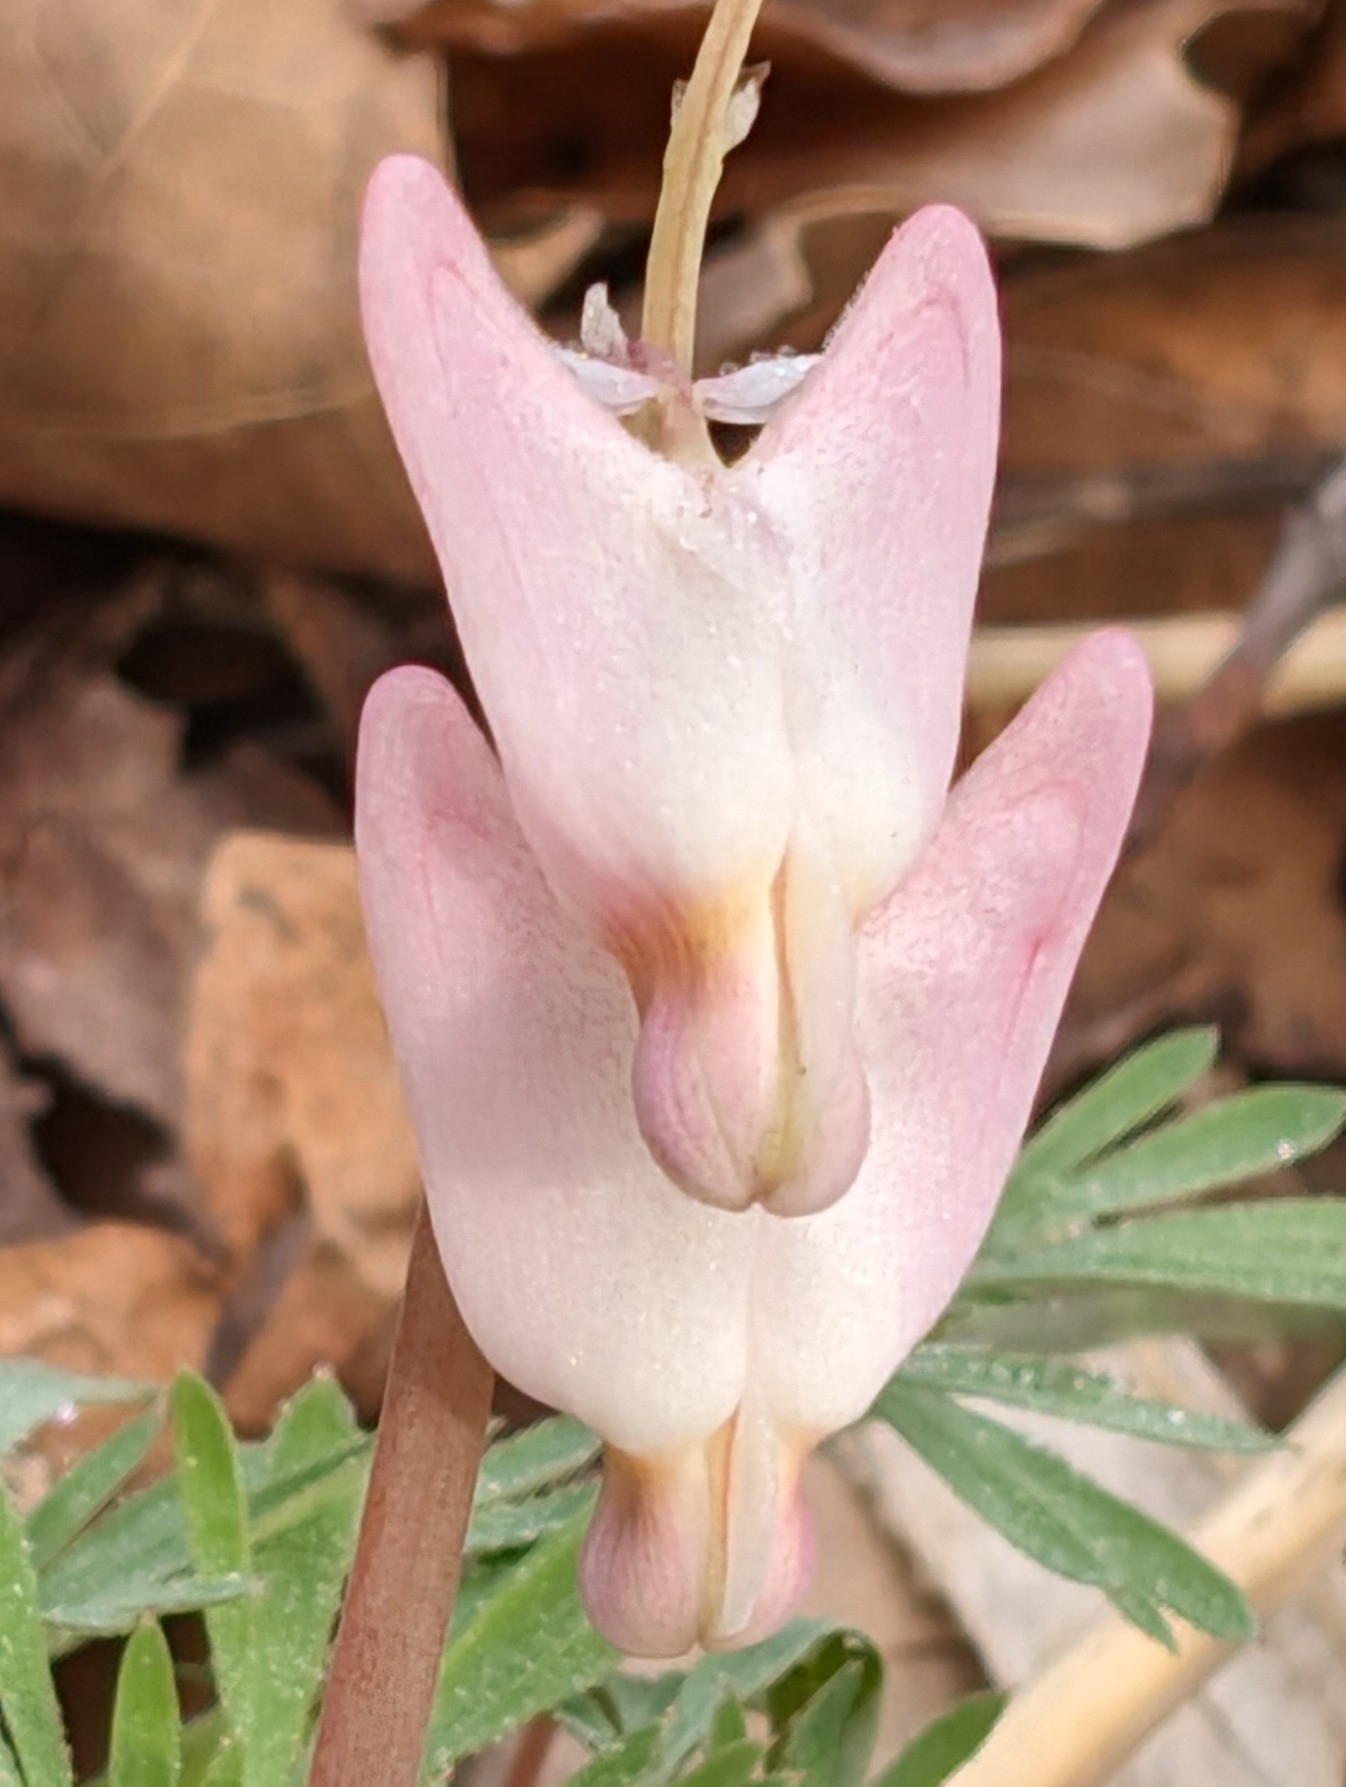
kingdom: Plantae
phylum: Tracheophyta
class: Magnoliopsida
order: Ranunculales
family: Papaveraceae
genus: Dicentra
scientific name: Dicentra cucullaria
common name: Dutchman's breeches
